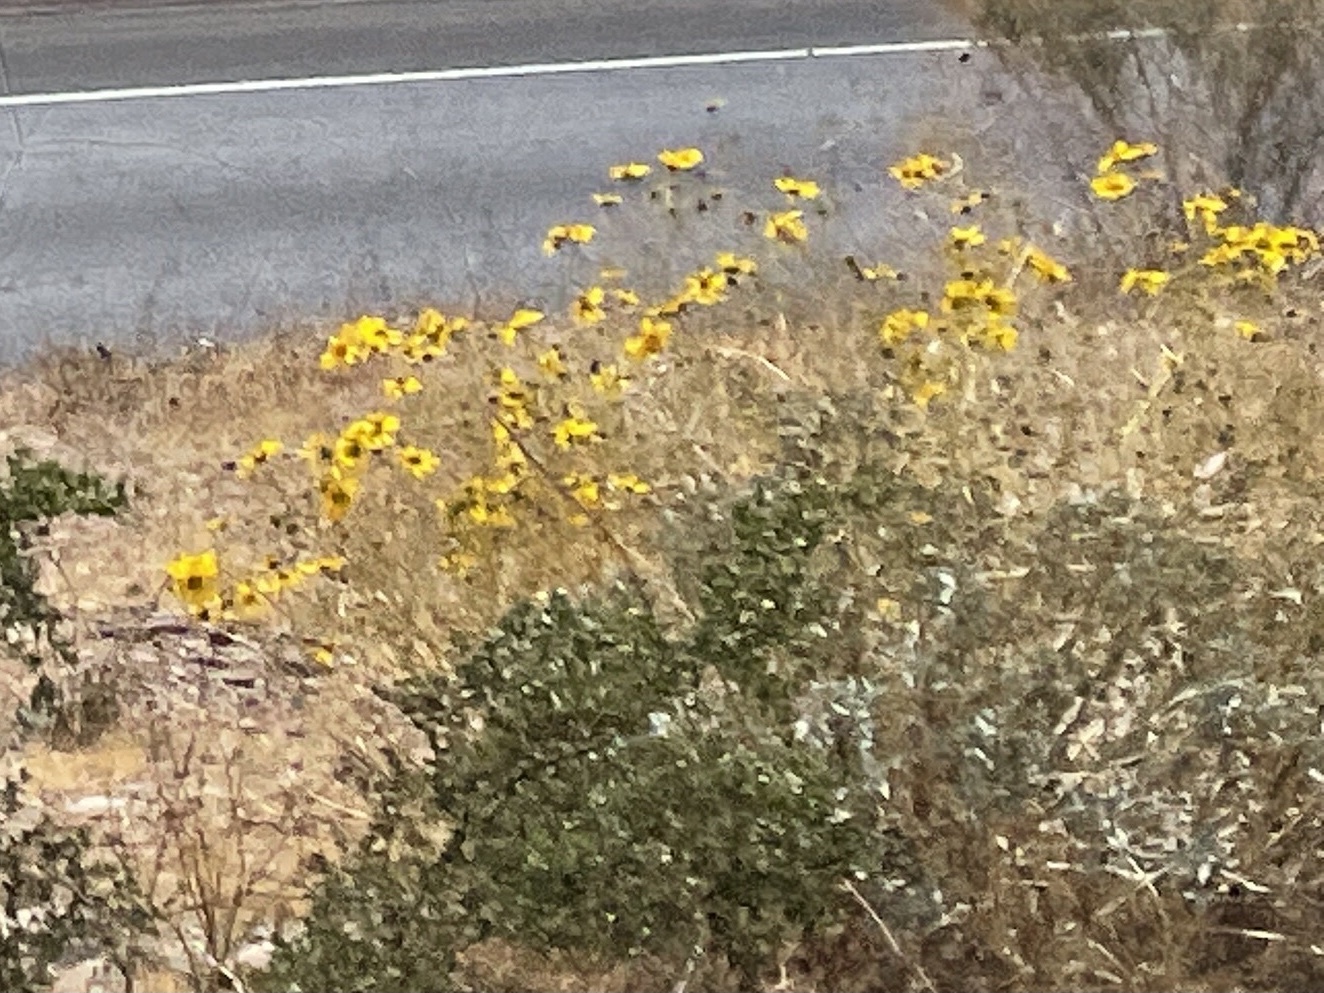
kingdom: Plantae
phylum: Tracheophyta
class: Magnoliopsida
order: Asterales
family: Asteraceae
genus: Encelia
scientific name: Encelia farinosa
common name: Brittlebush
